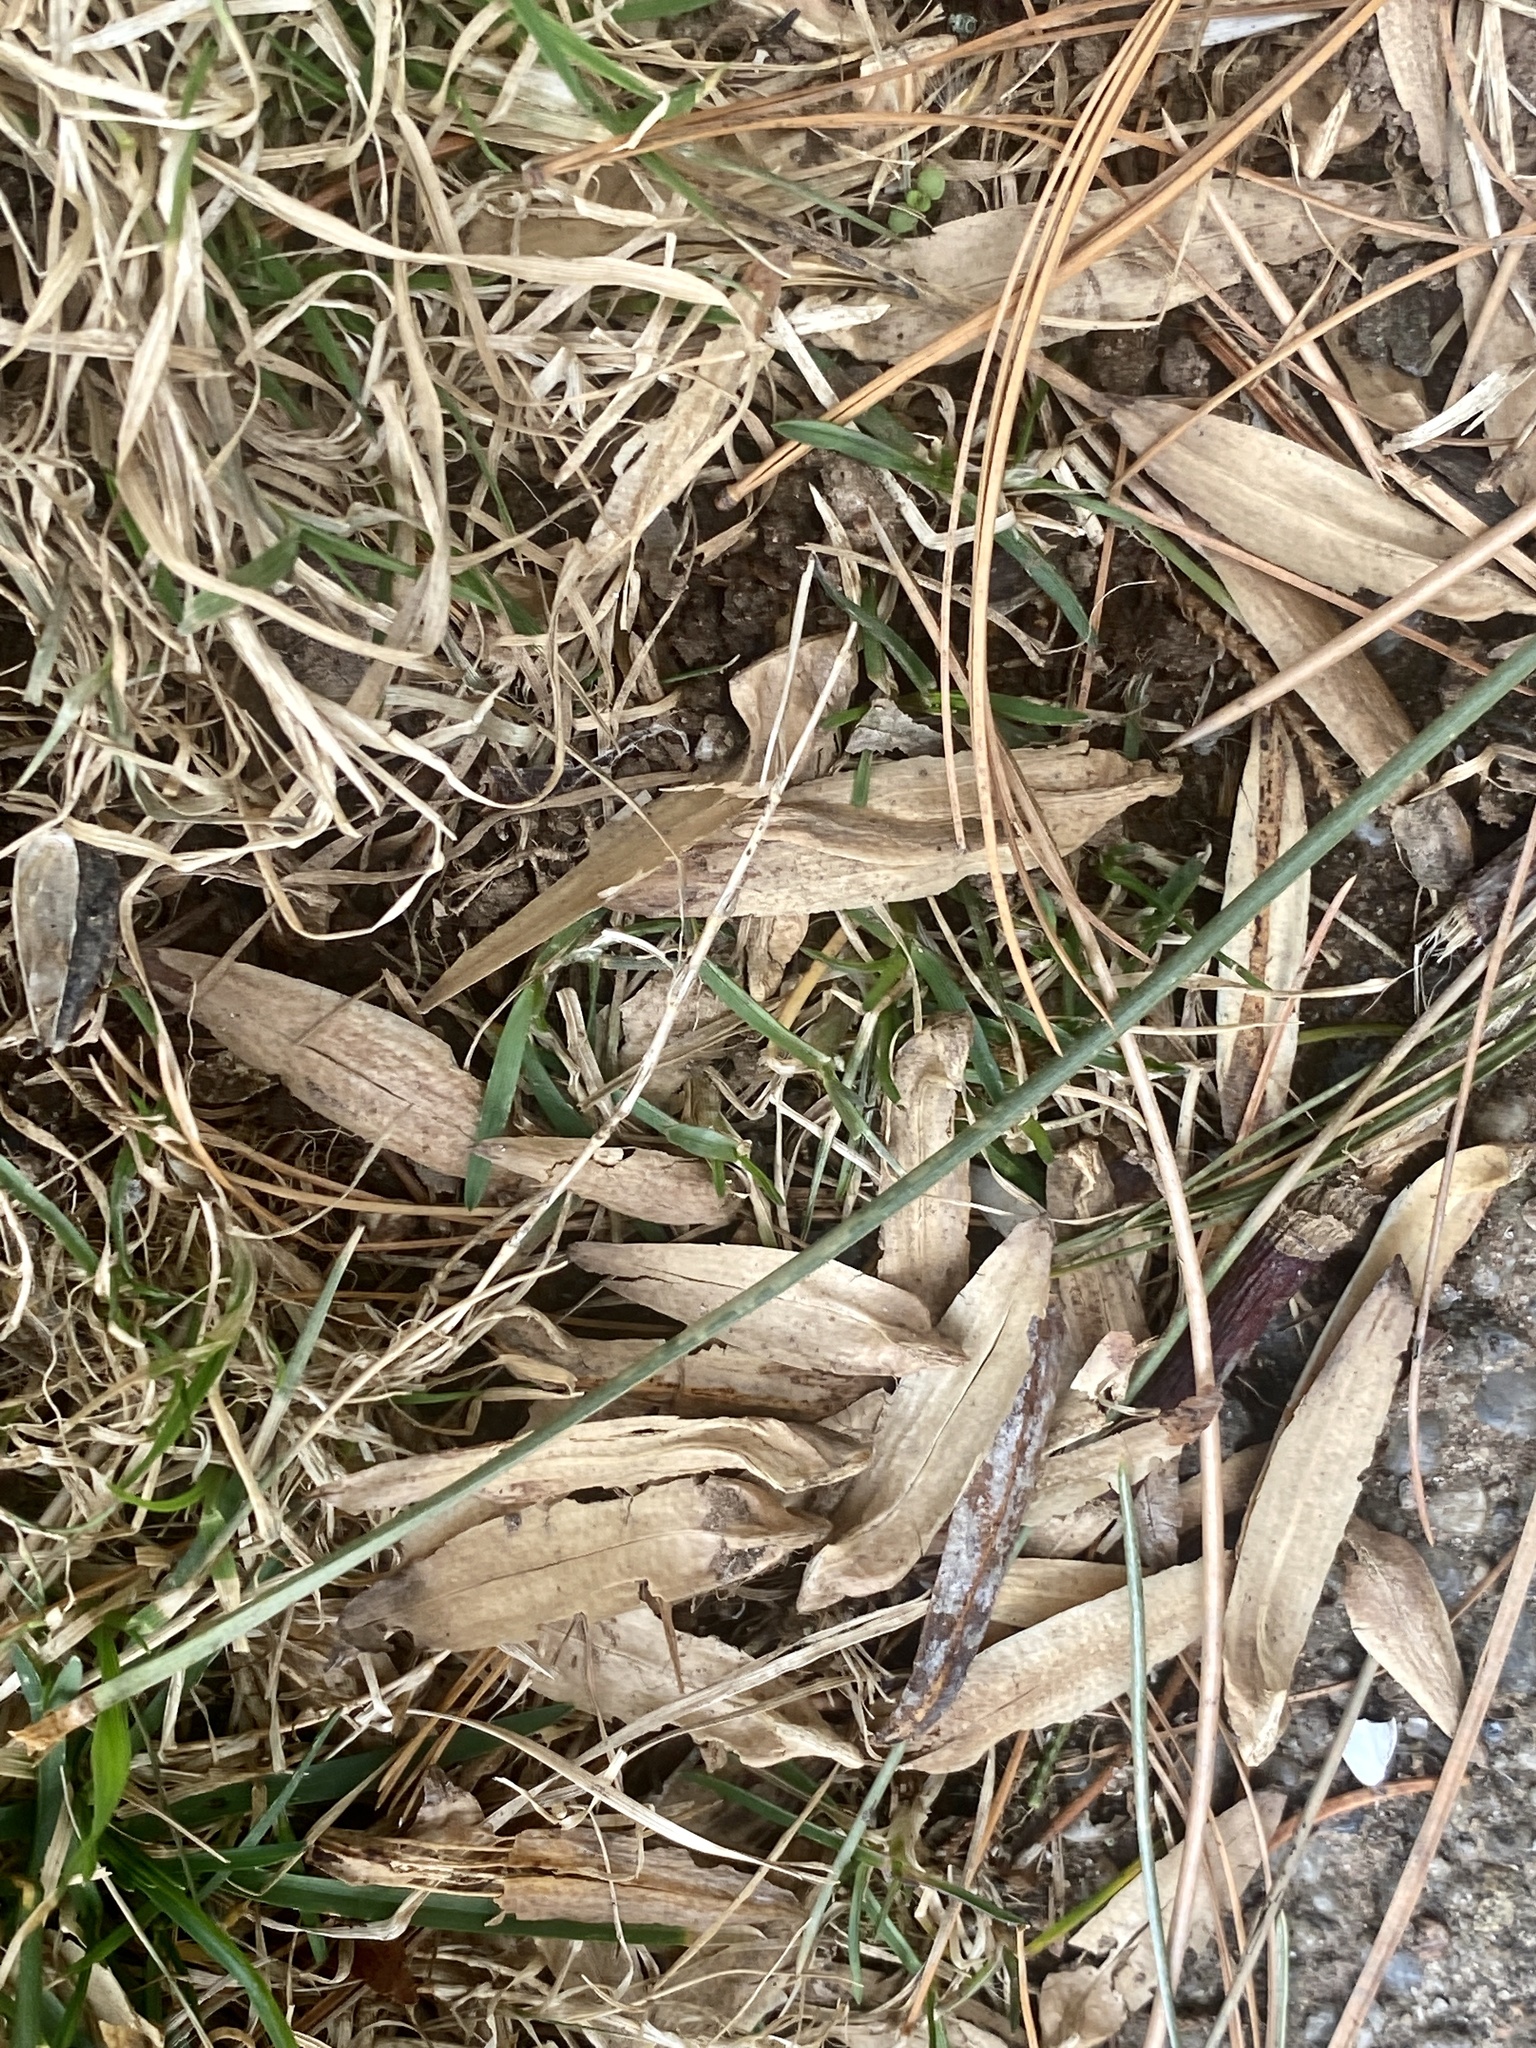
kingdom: Plantae
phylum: Tracheophyta
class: Magnoliopsida
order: Magnoliales
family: Magnoliaceae
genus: Liriodendron
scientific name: Liriodendron tulipifera
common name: Tulip tree
